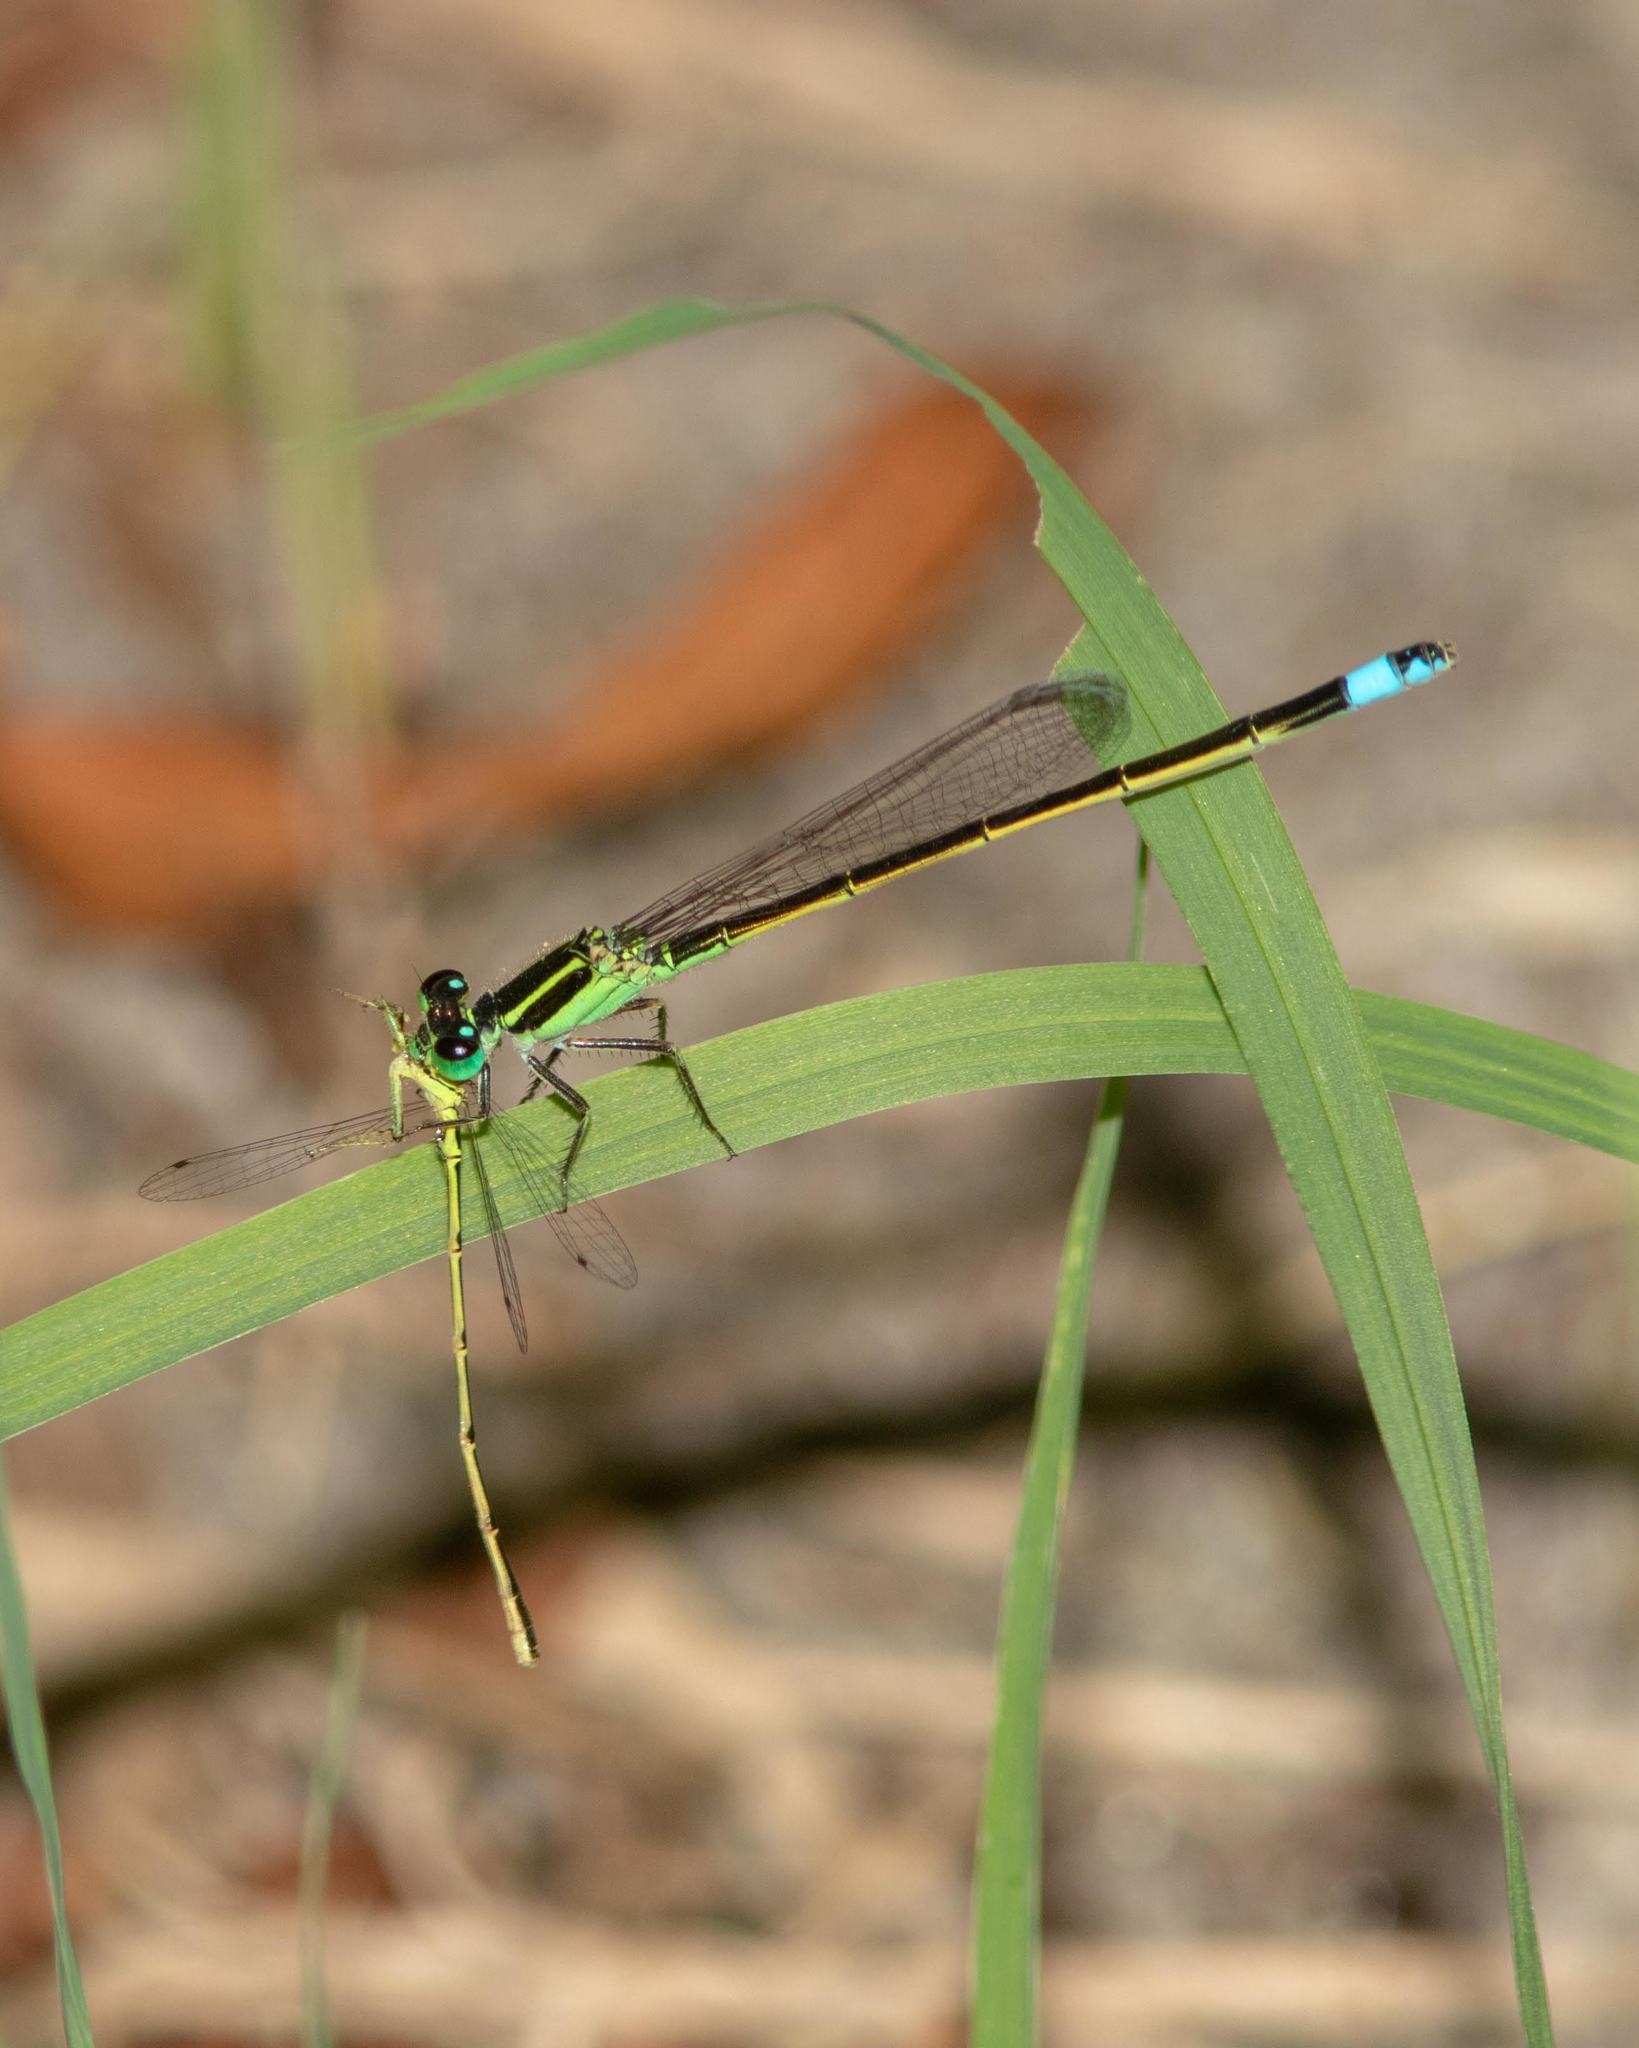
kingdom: Animalia
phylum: Arthropoda
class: Insecta
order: Odonata
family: Coenagrionidae
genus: Ischnura
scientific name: Ischnura ramburii
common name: Rambur's forktail
